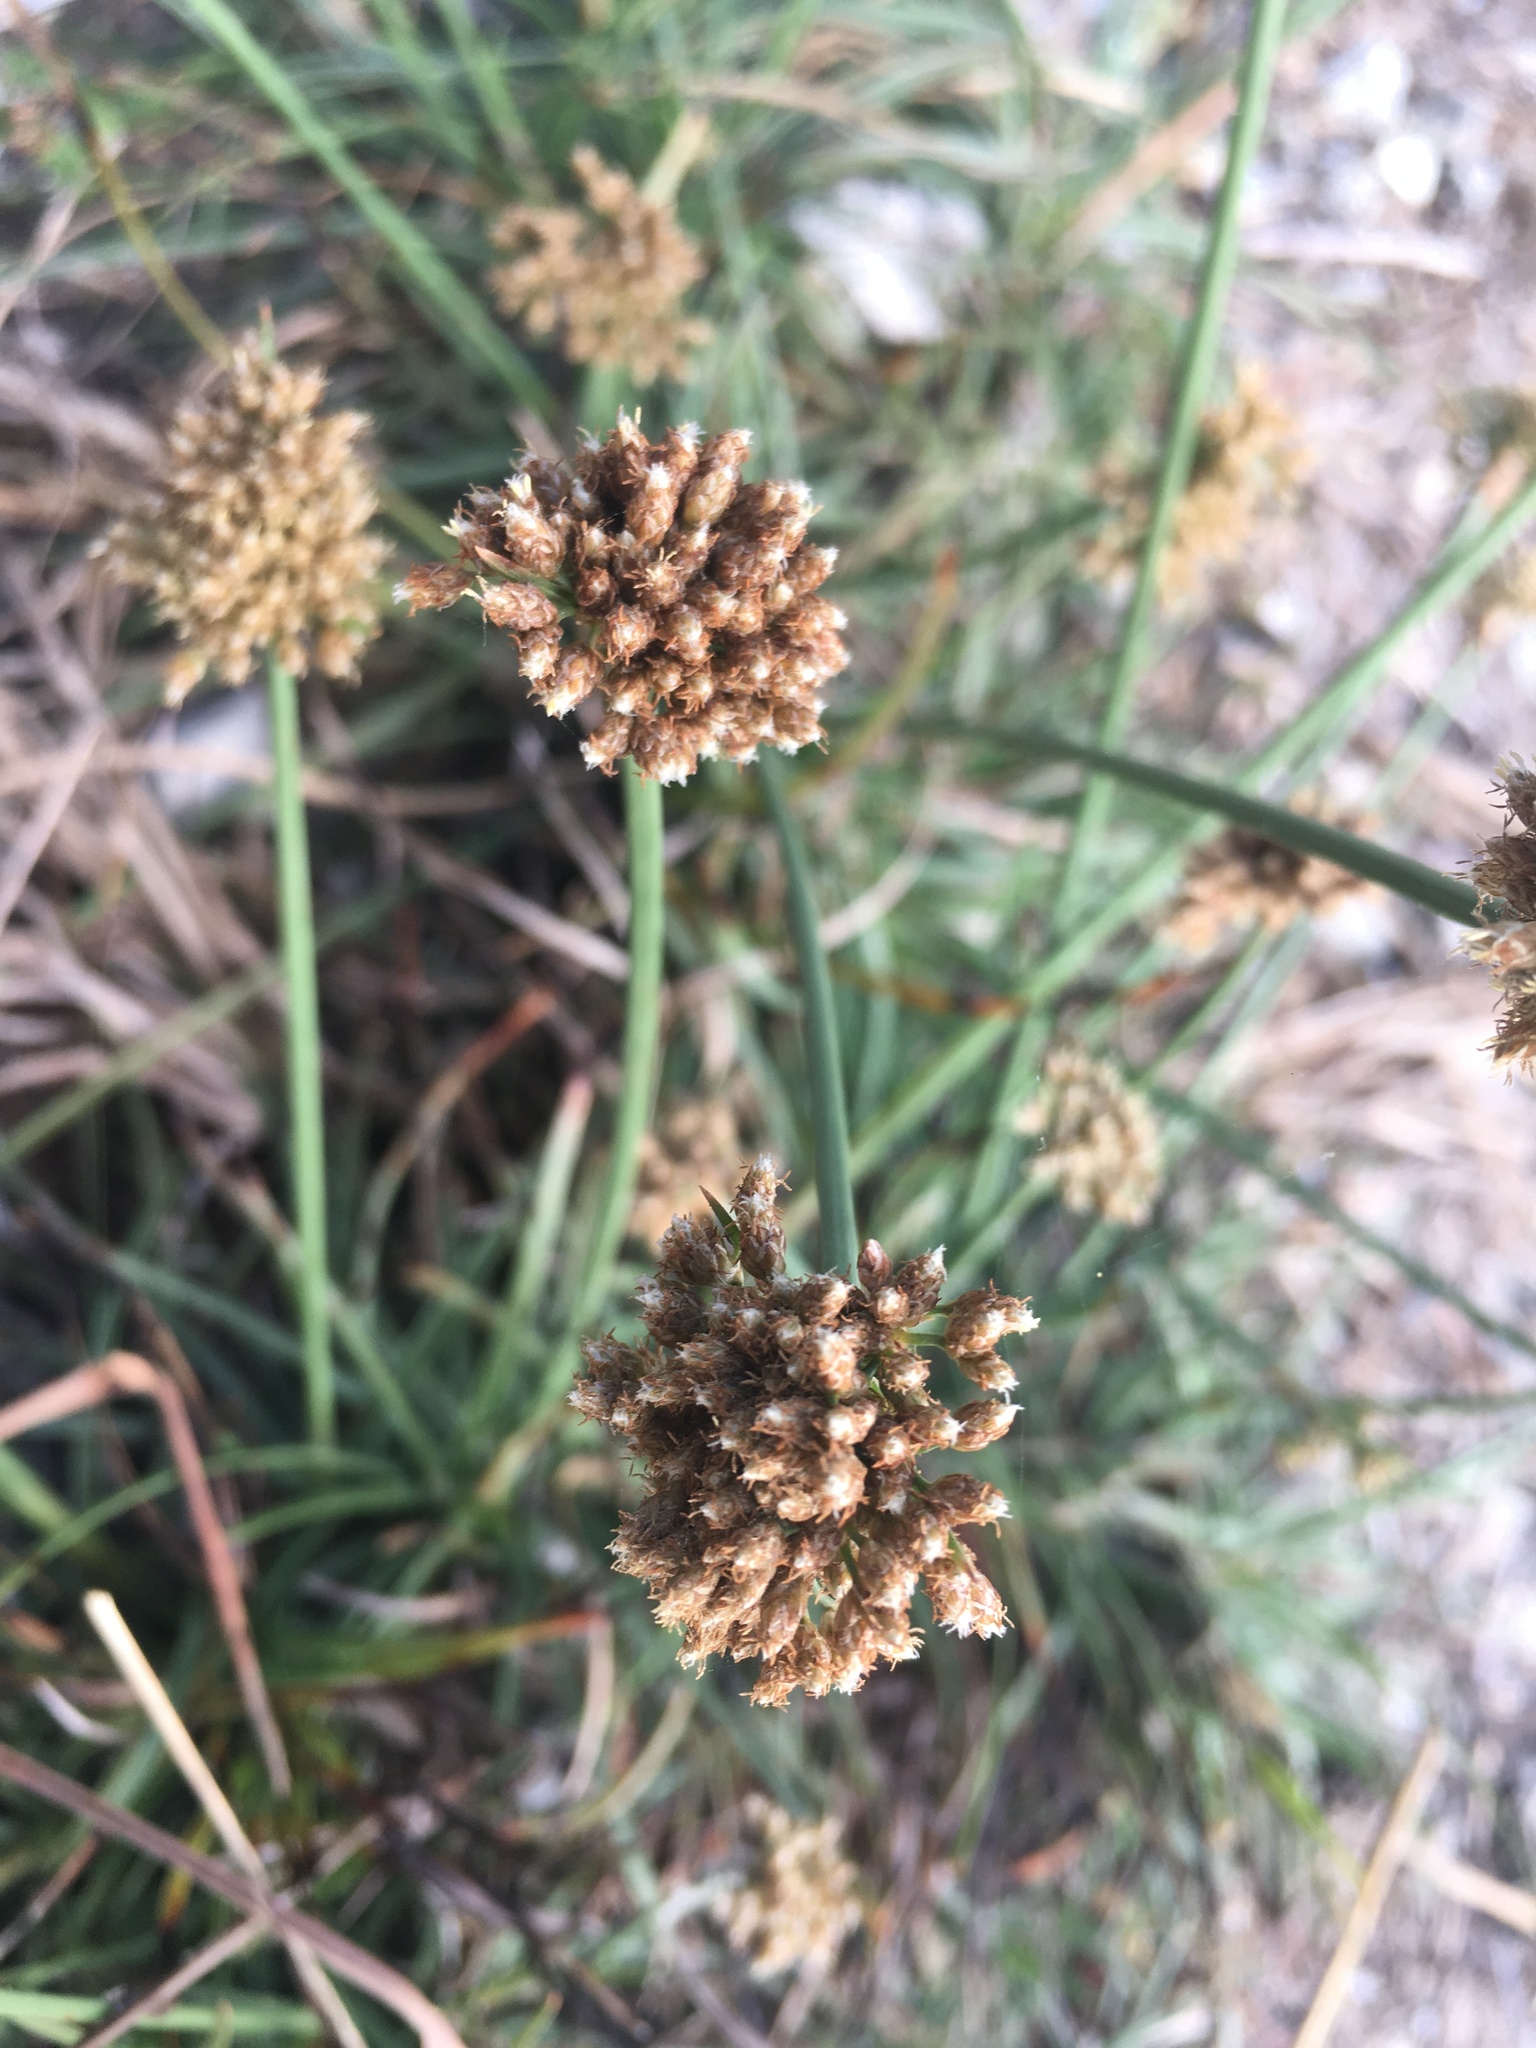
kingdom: Plantae
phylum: Tracheophyta
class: Liliopsida
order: Poales
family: Cyperaceae
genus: Fimbristylis
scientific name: Fimbristylis cymosa
